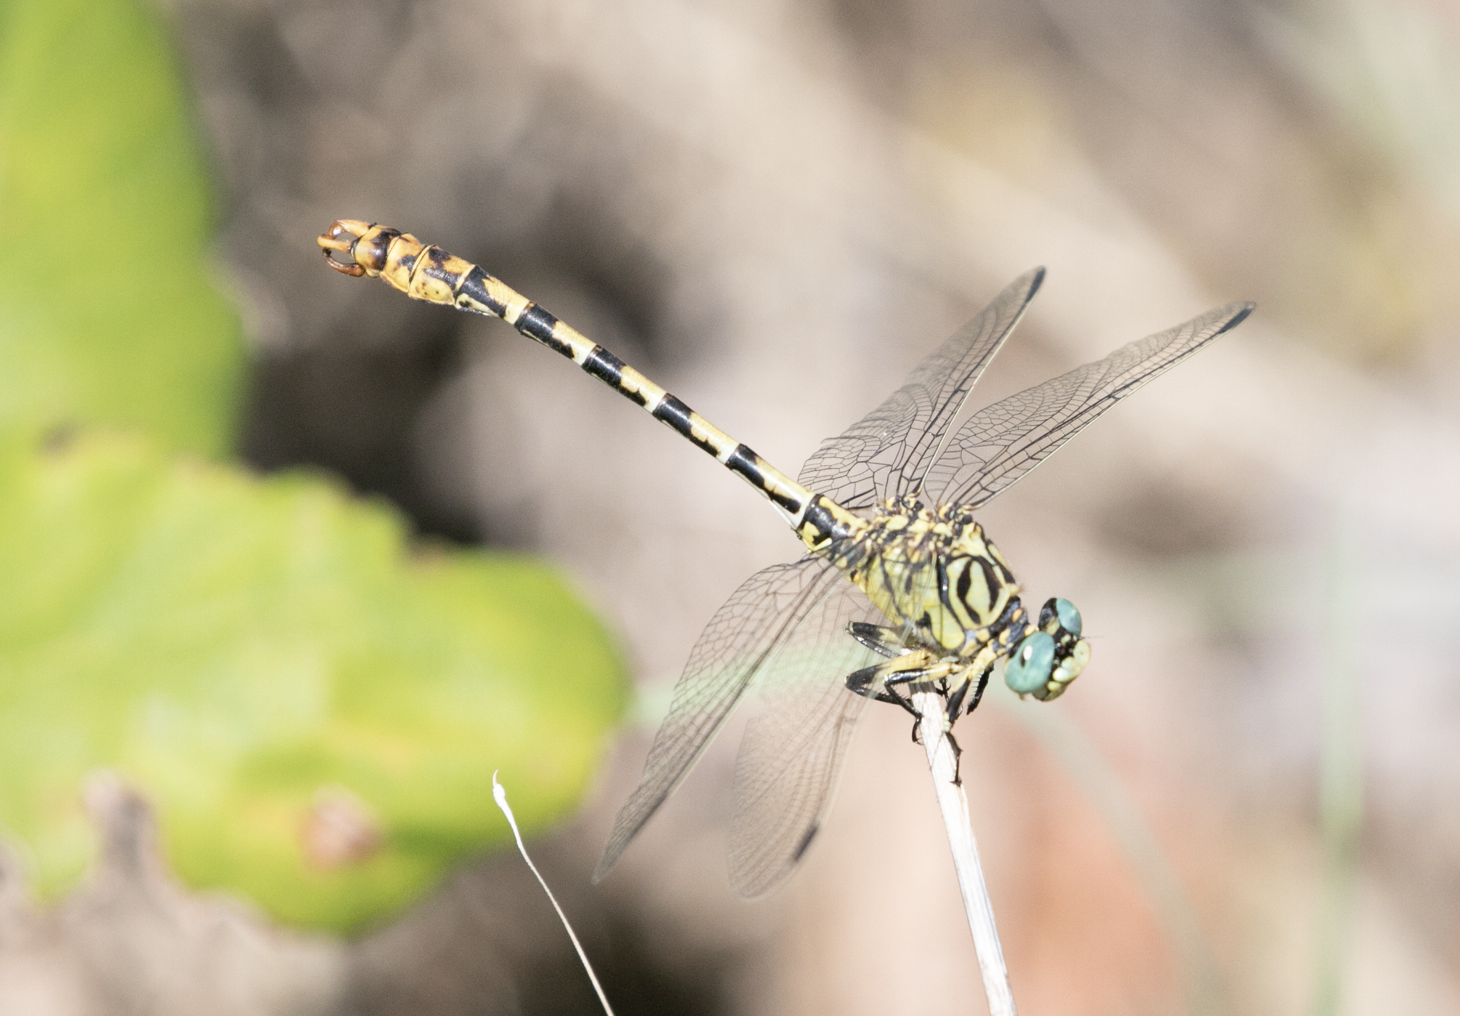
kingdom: Animalia
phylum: Arthropoda
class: Insecta
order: Odonata
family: Gomphidae
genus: Onychogomphus
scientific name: Onychogomphus forcipatus
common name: Small pincertail
